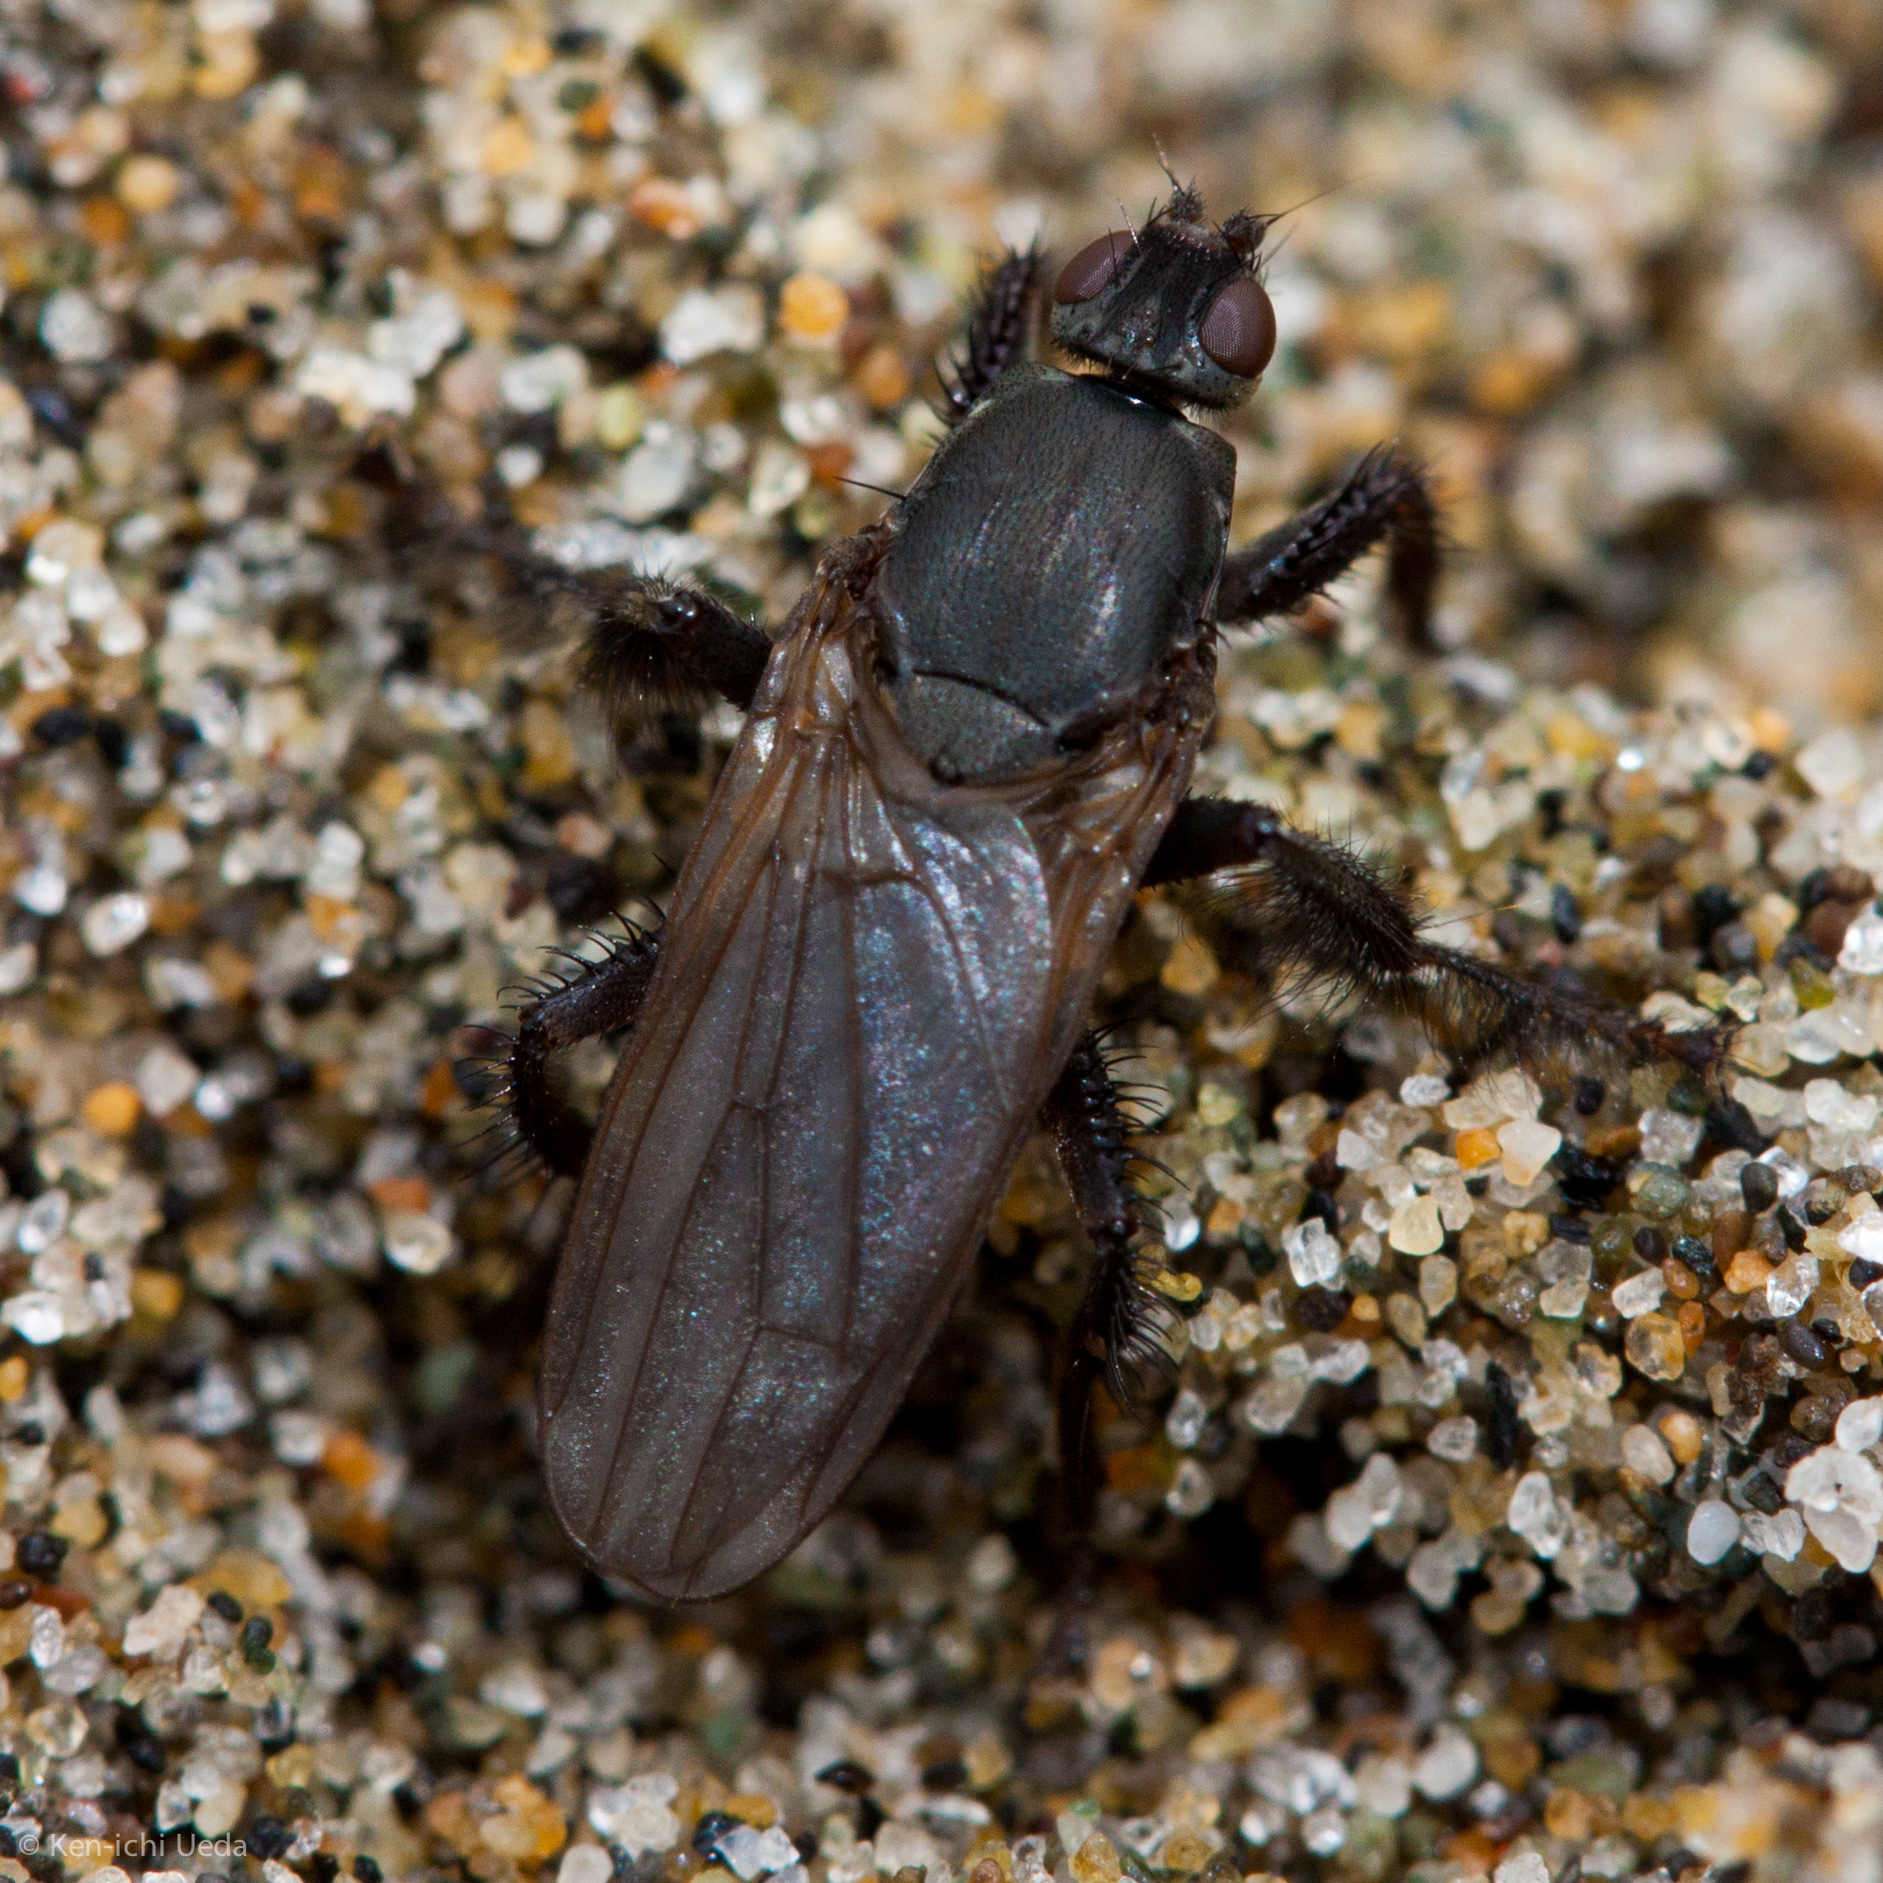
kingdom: Animalia
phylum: Arthropoda
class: Insecta
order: Diptera
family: Coelopidae
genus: Coelopa
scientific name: Coelopa vanduzeei
